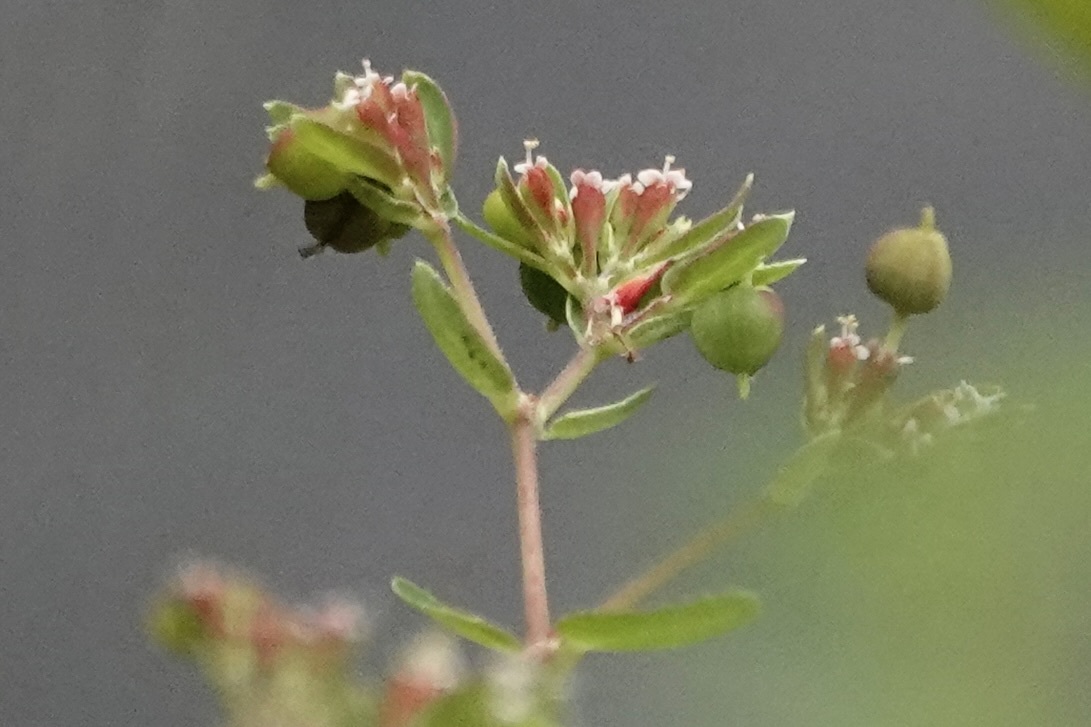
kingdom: Plantae
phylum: Tracheophyta
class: Magnoliopsida
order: Malpighiales
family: Euphorbiaceae
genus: Euphorbia
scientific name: Euphorbia nutans
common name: Eyebane
